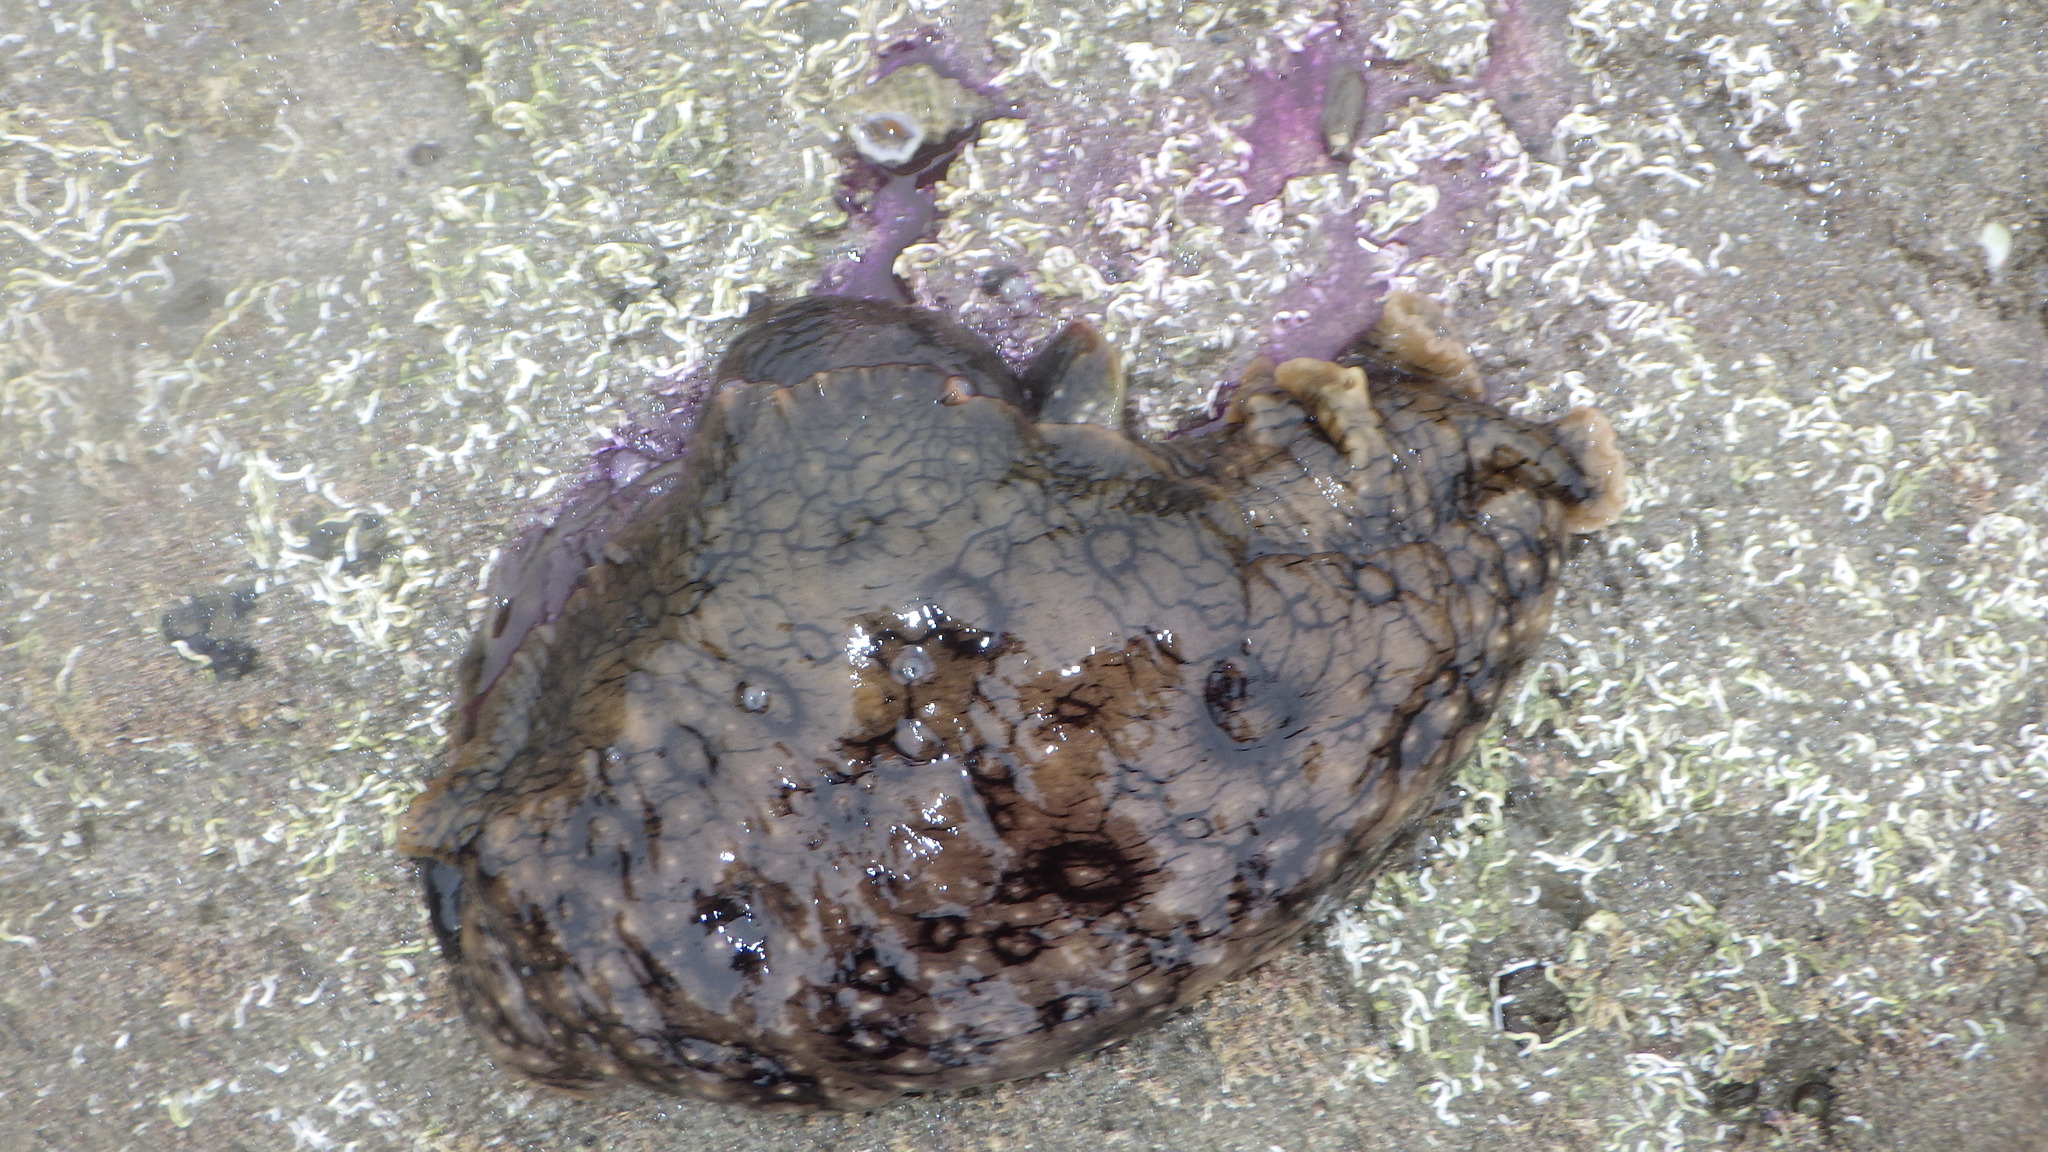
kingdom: Animalia
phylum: Mollusca
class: Gastropoda
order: Aplysiida
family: Aplysiidae
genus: Aplysia
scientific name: Aplysia argus
